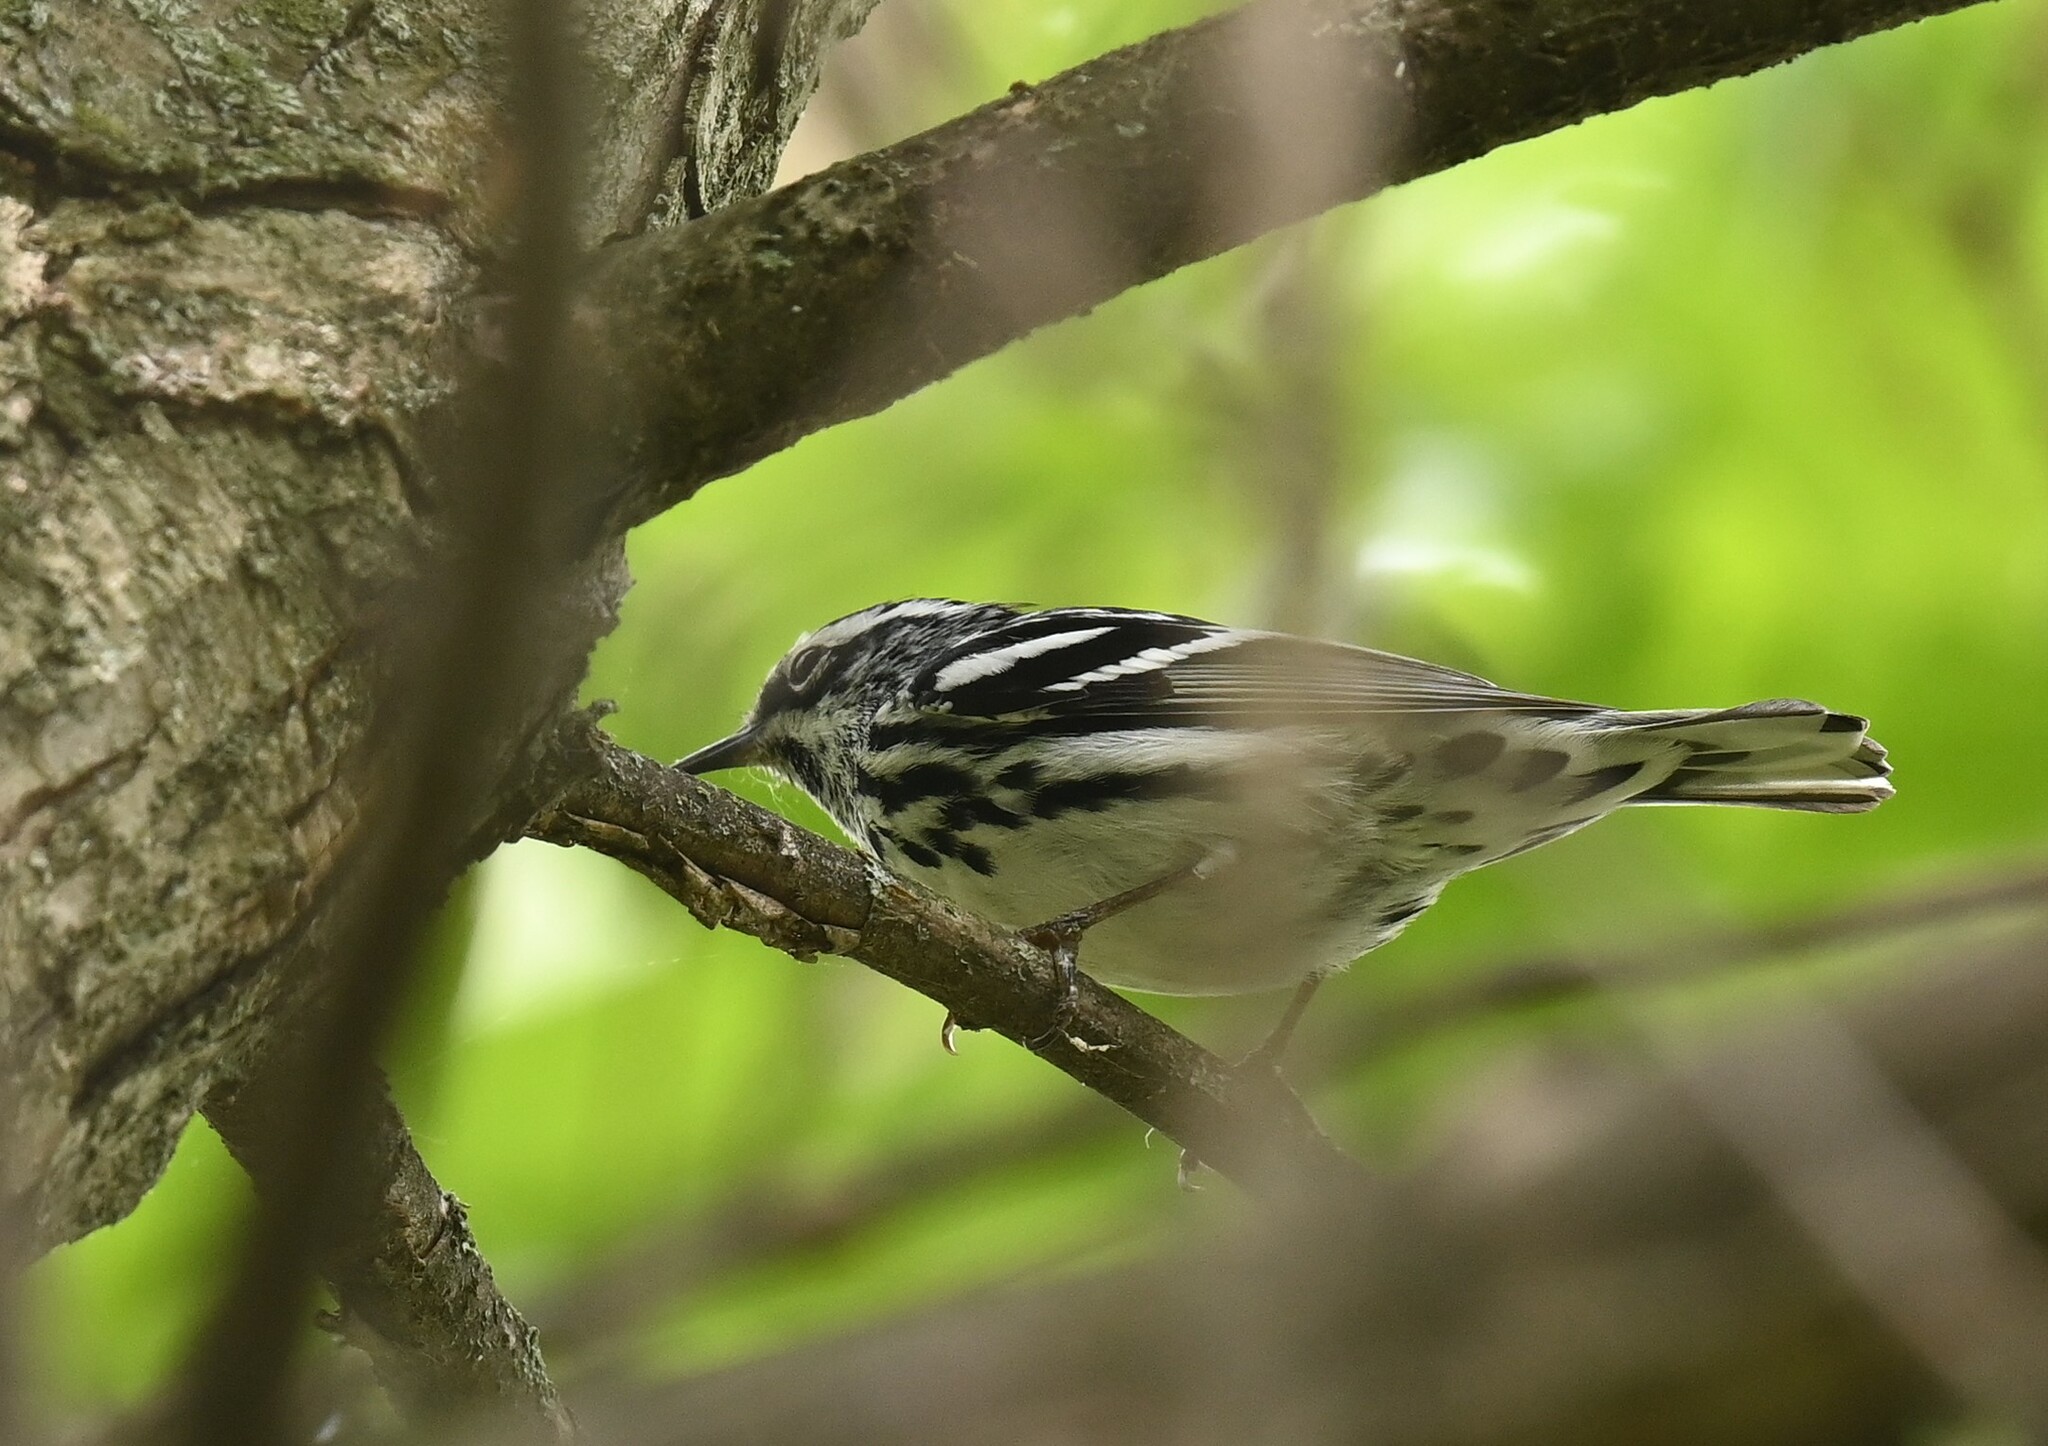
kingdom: Animalia
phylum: Chordata
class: Aves
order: Passeriformes
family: Parulidae
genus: Mniotilta
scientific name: Mniotilta varia
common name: Black-and-white warbler
